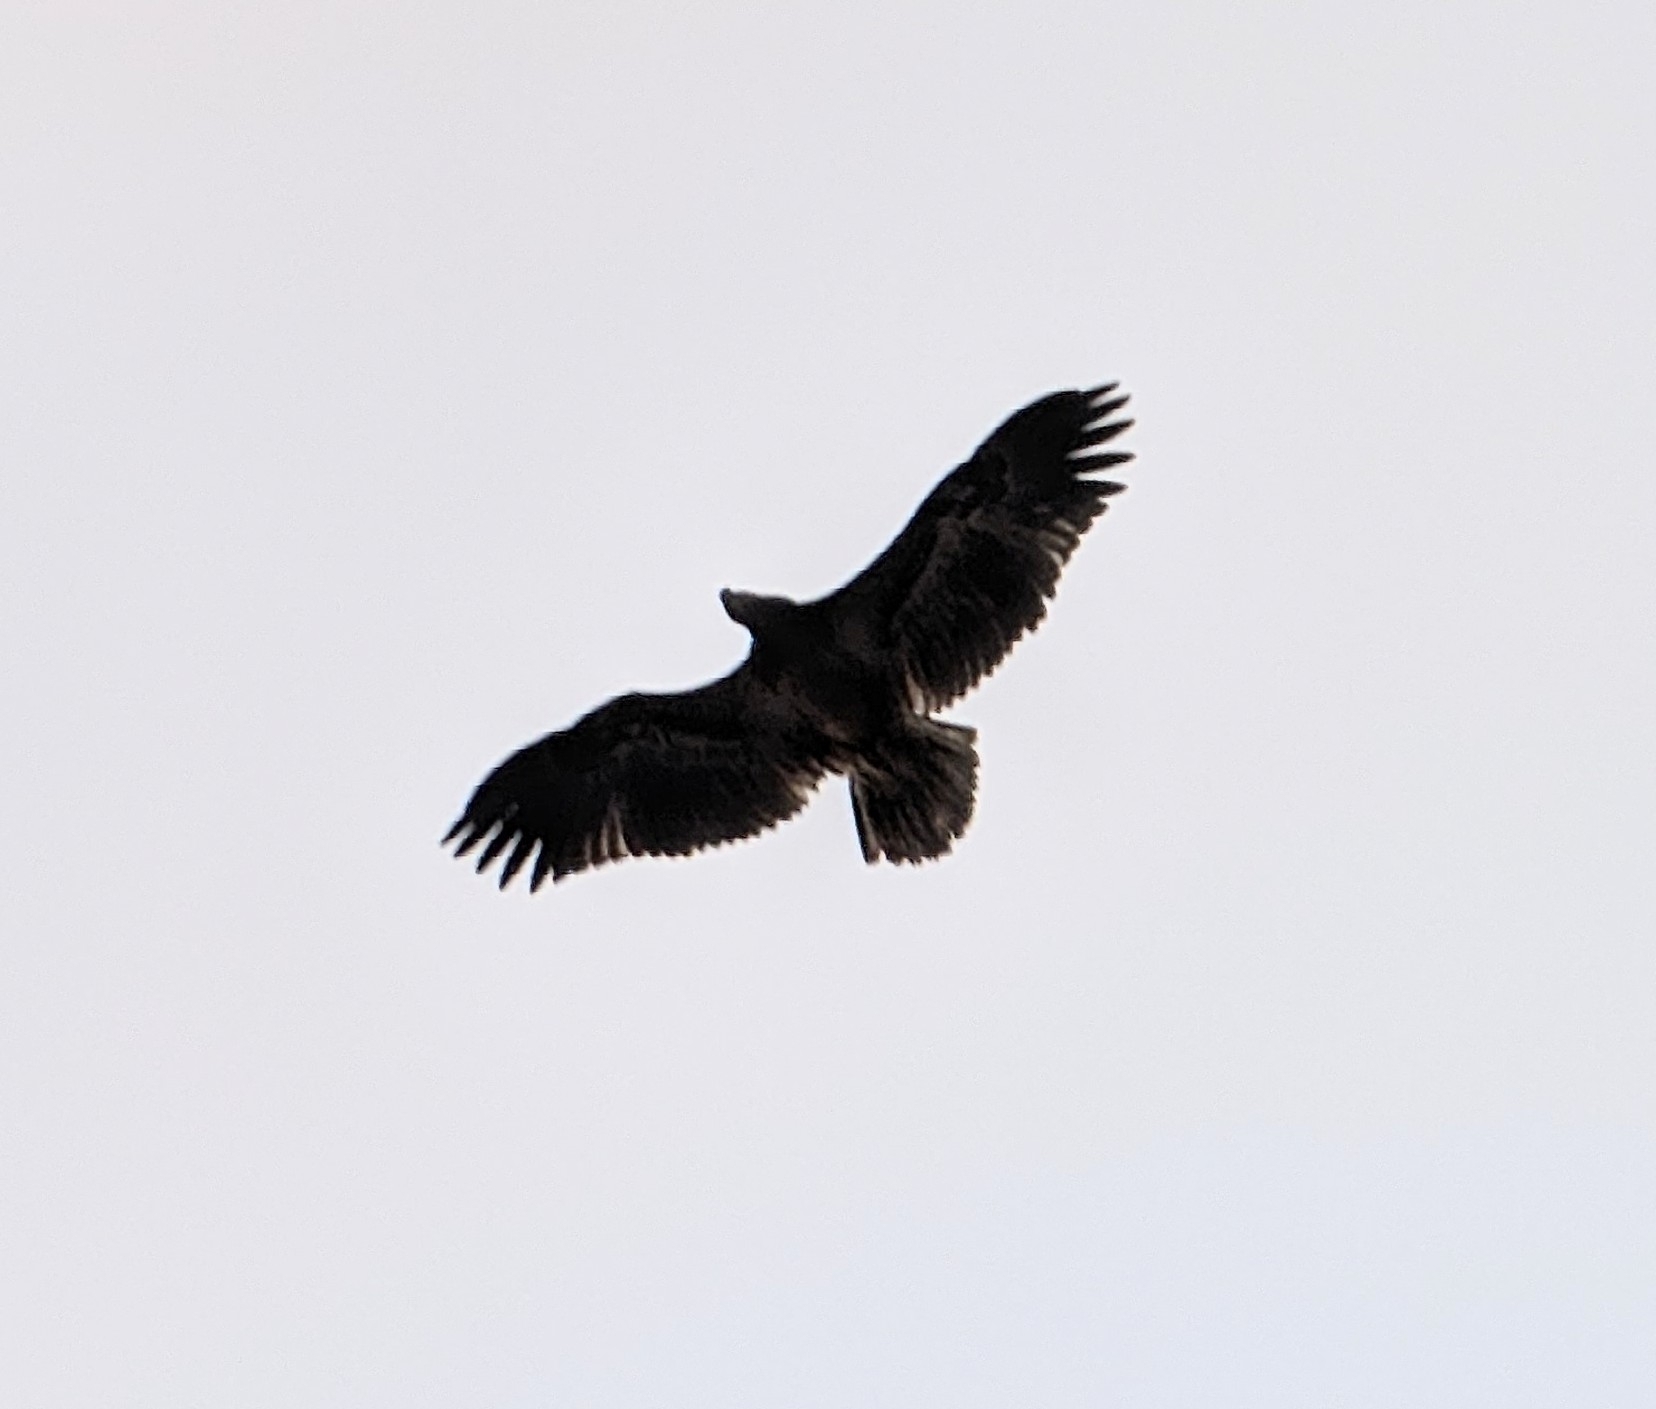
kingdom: Animalia
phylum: Chordata
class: Aves
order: Accipitriformes
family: Accipitridae
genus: Haliaeetus
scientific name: Haliaeetus leucocephalus
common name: Bald eagle
